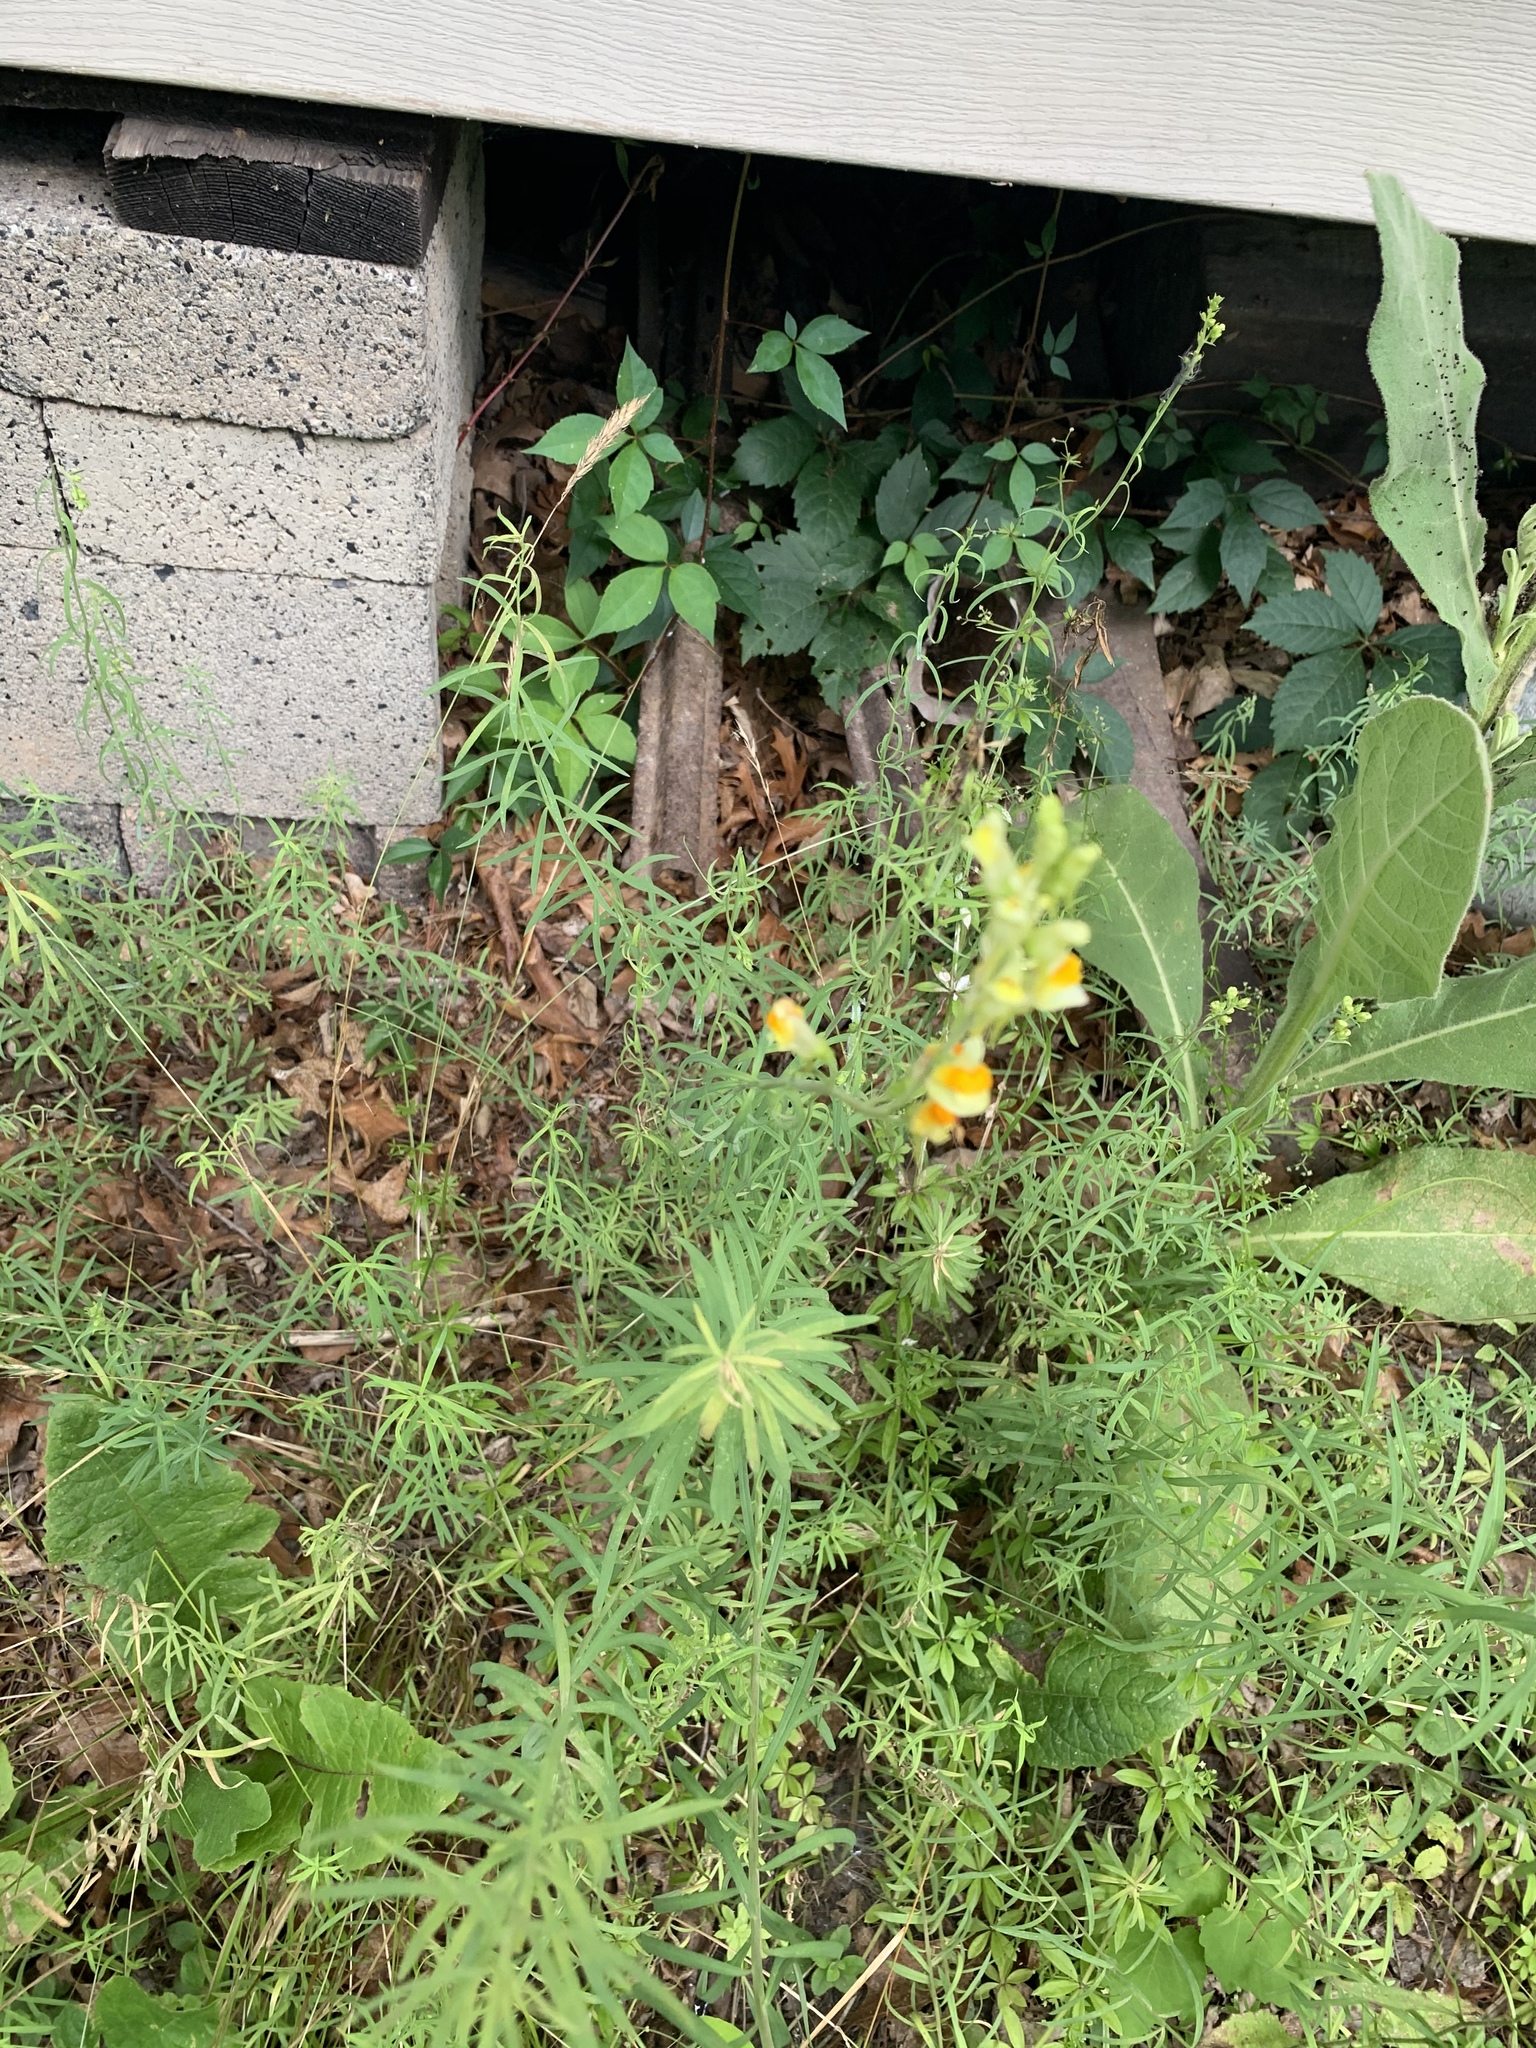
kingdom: Plantae
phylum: Tracheophyta
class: Magnoliopsida
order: Lamiales
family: Plantaginaceae
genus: Linaria
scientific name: Linaria vulgaris
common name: Butter and eggs
